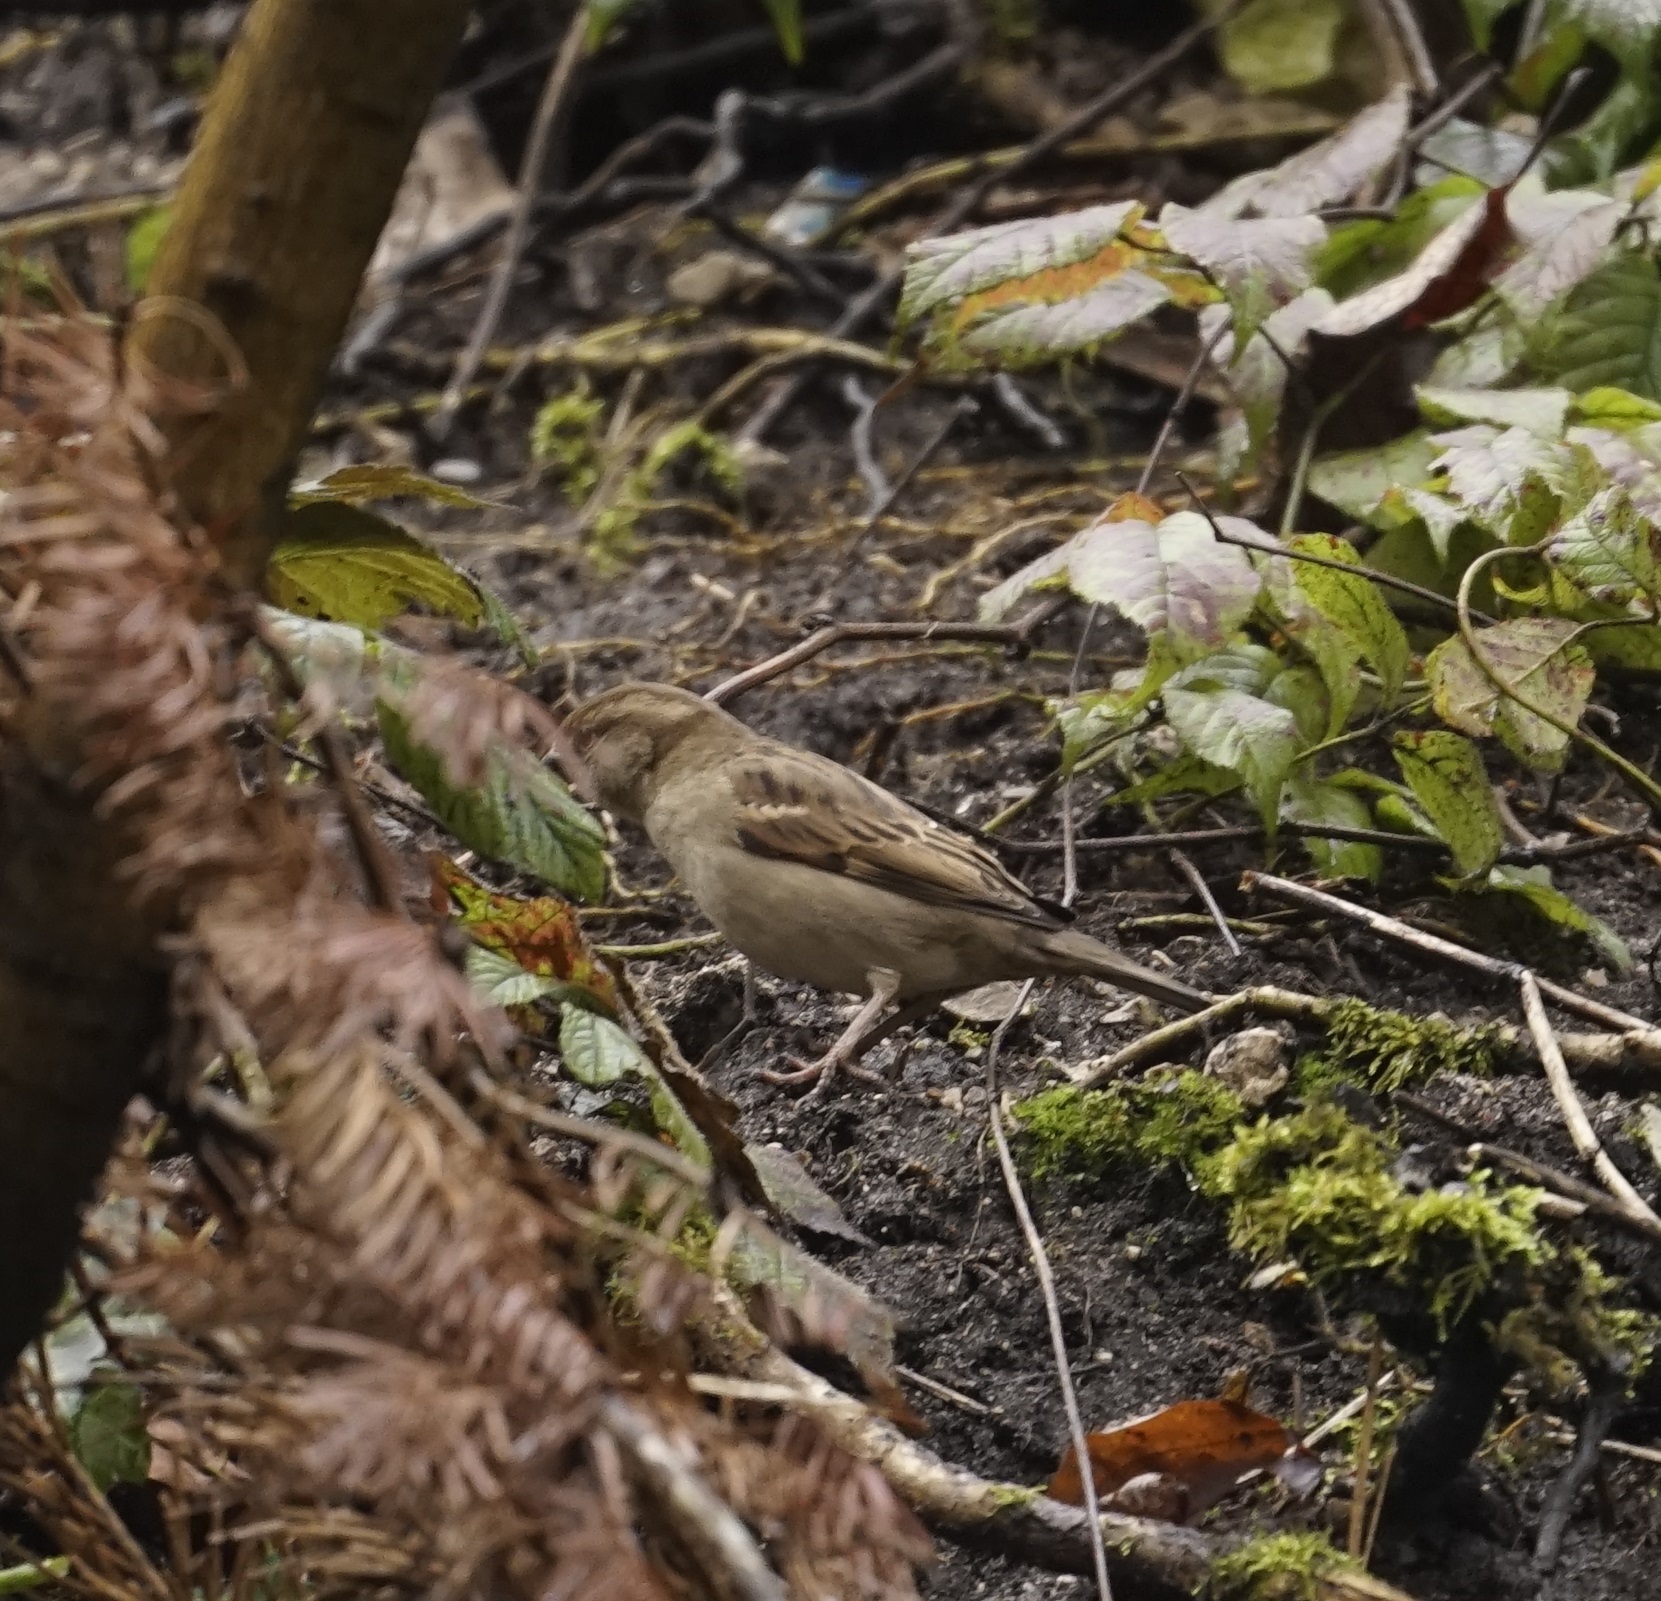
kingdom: Animalia
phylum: Chordata
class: Aves
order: Passeriformes
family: Passeridae
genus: Passer
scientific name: Passer domesticus
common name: House sparrow
